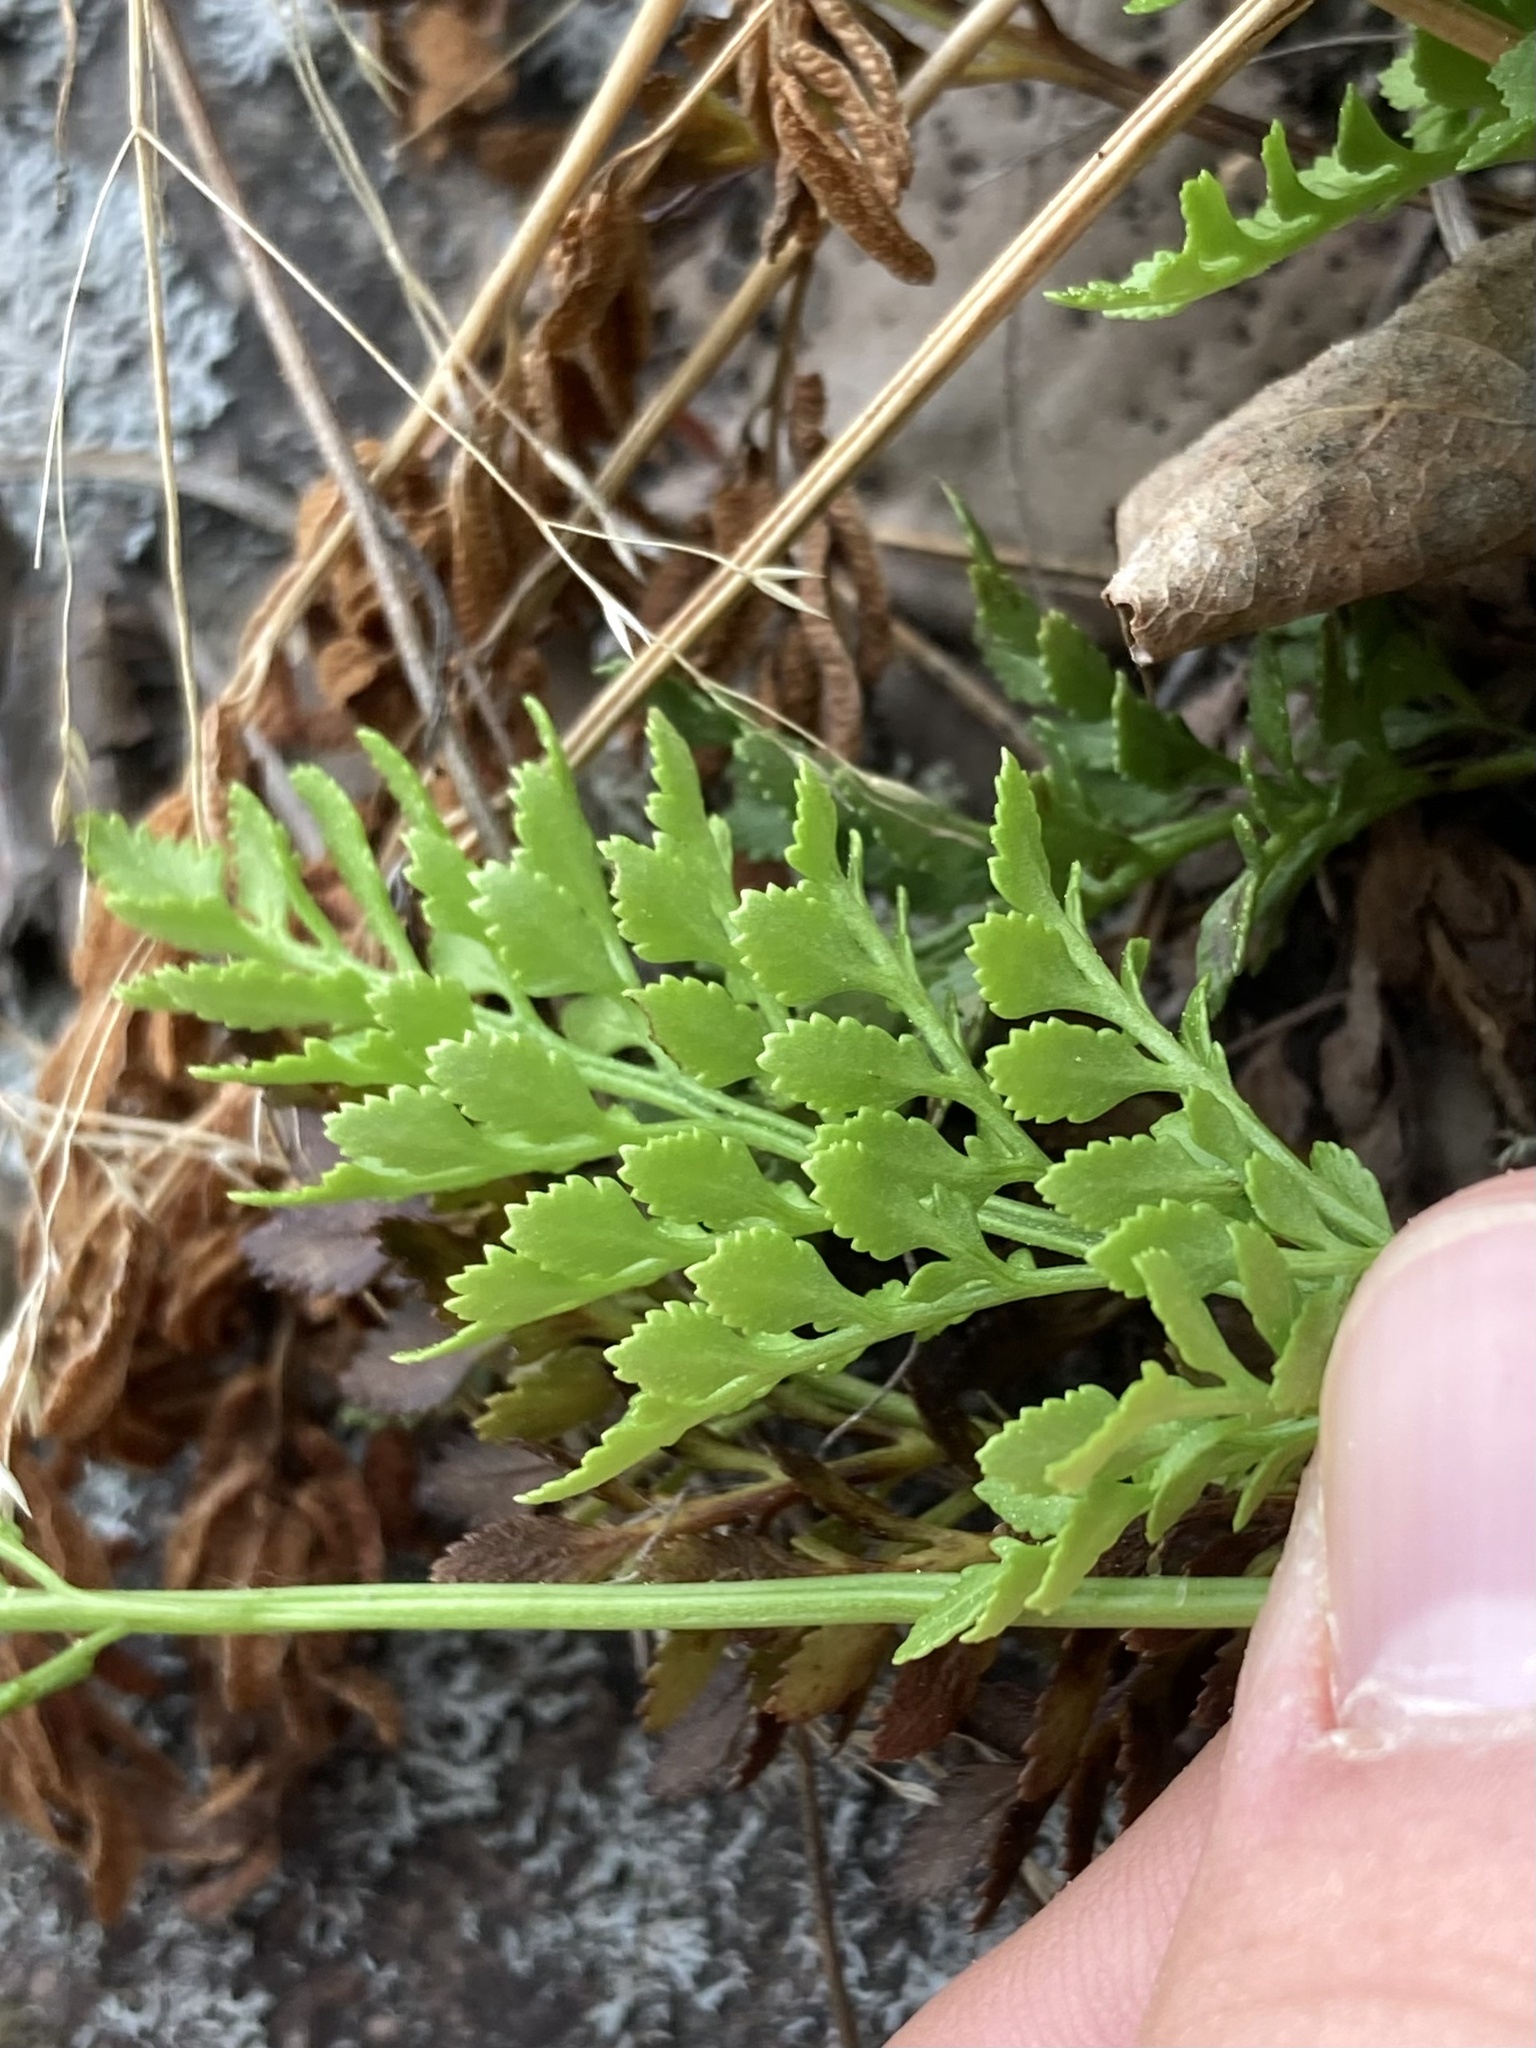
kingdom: Plantae
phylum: Tracheophyta
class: Polypodiopsida
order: Polypodiales
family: Pteridaceae
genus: Cryptogramma
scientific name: Cryptogramma acrostichoides
